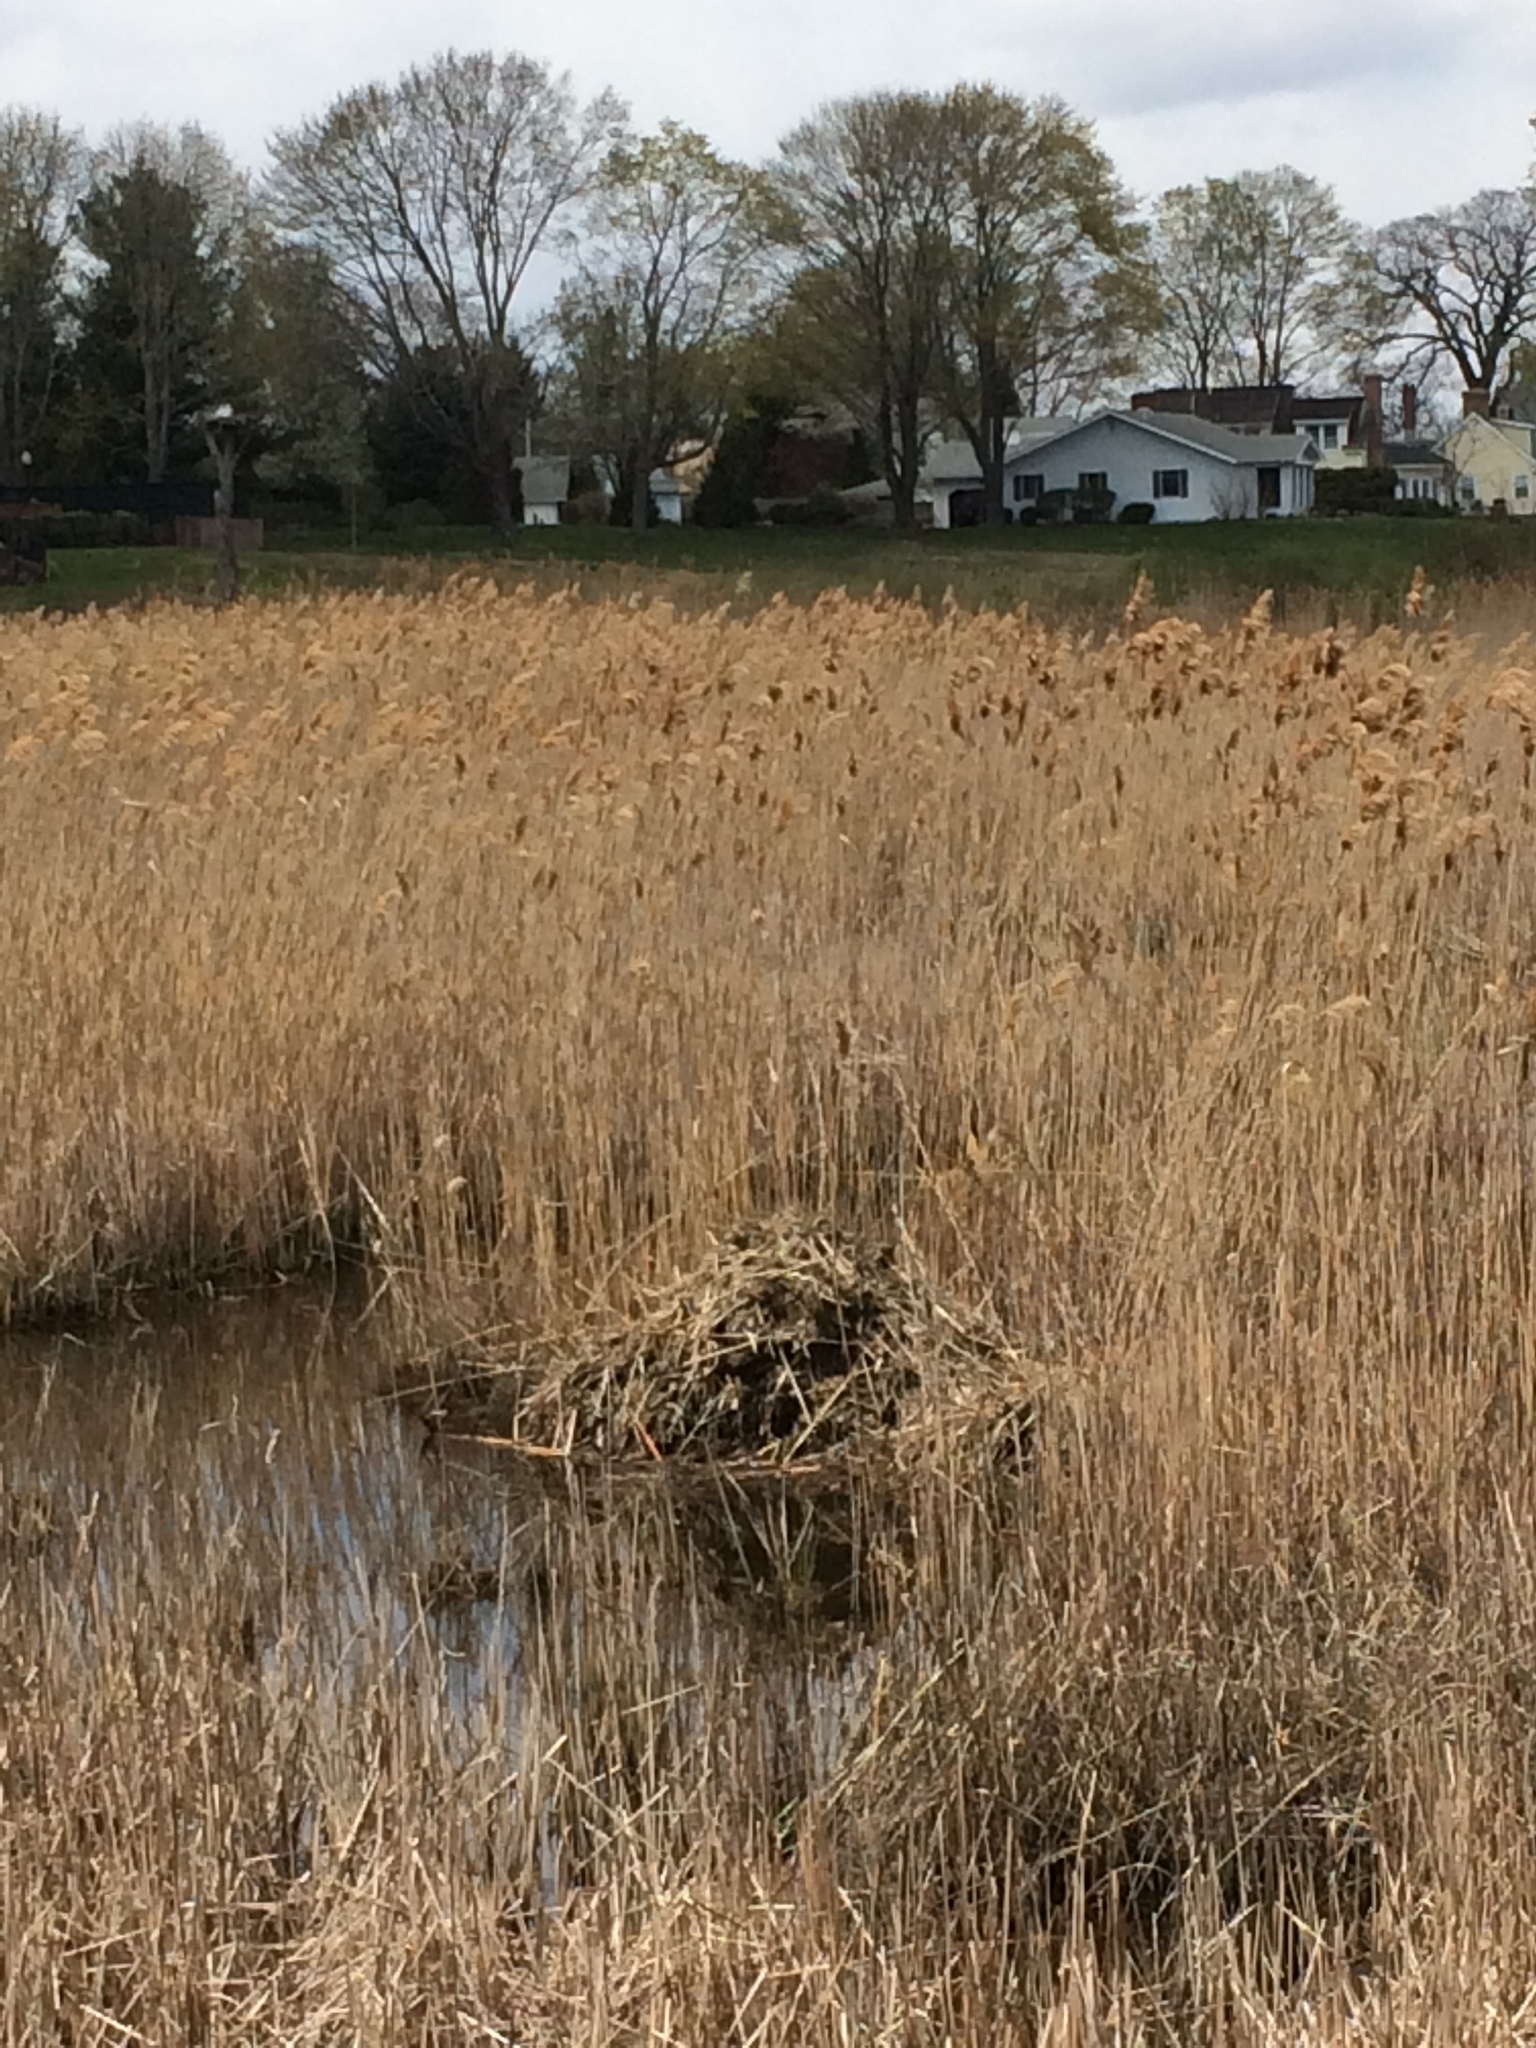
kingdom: Animalia
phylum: Chordata
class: Mammalia
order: Rodentia
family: Cricetidae
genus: Ondatra
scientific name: Ondatra zibethicus
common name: Muskrat
